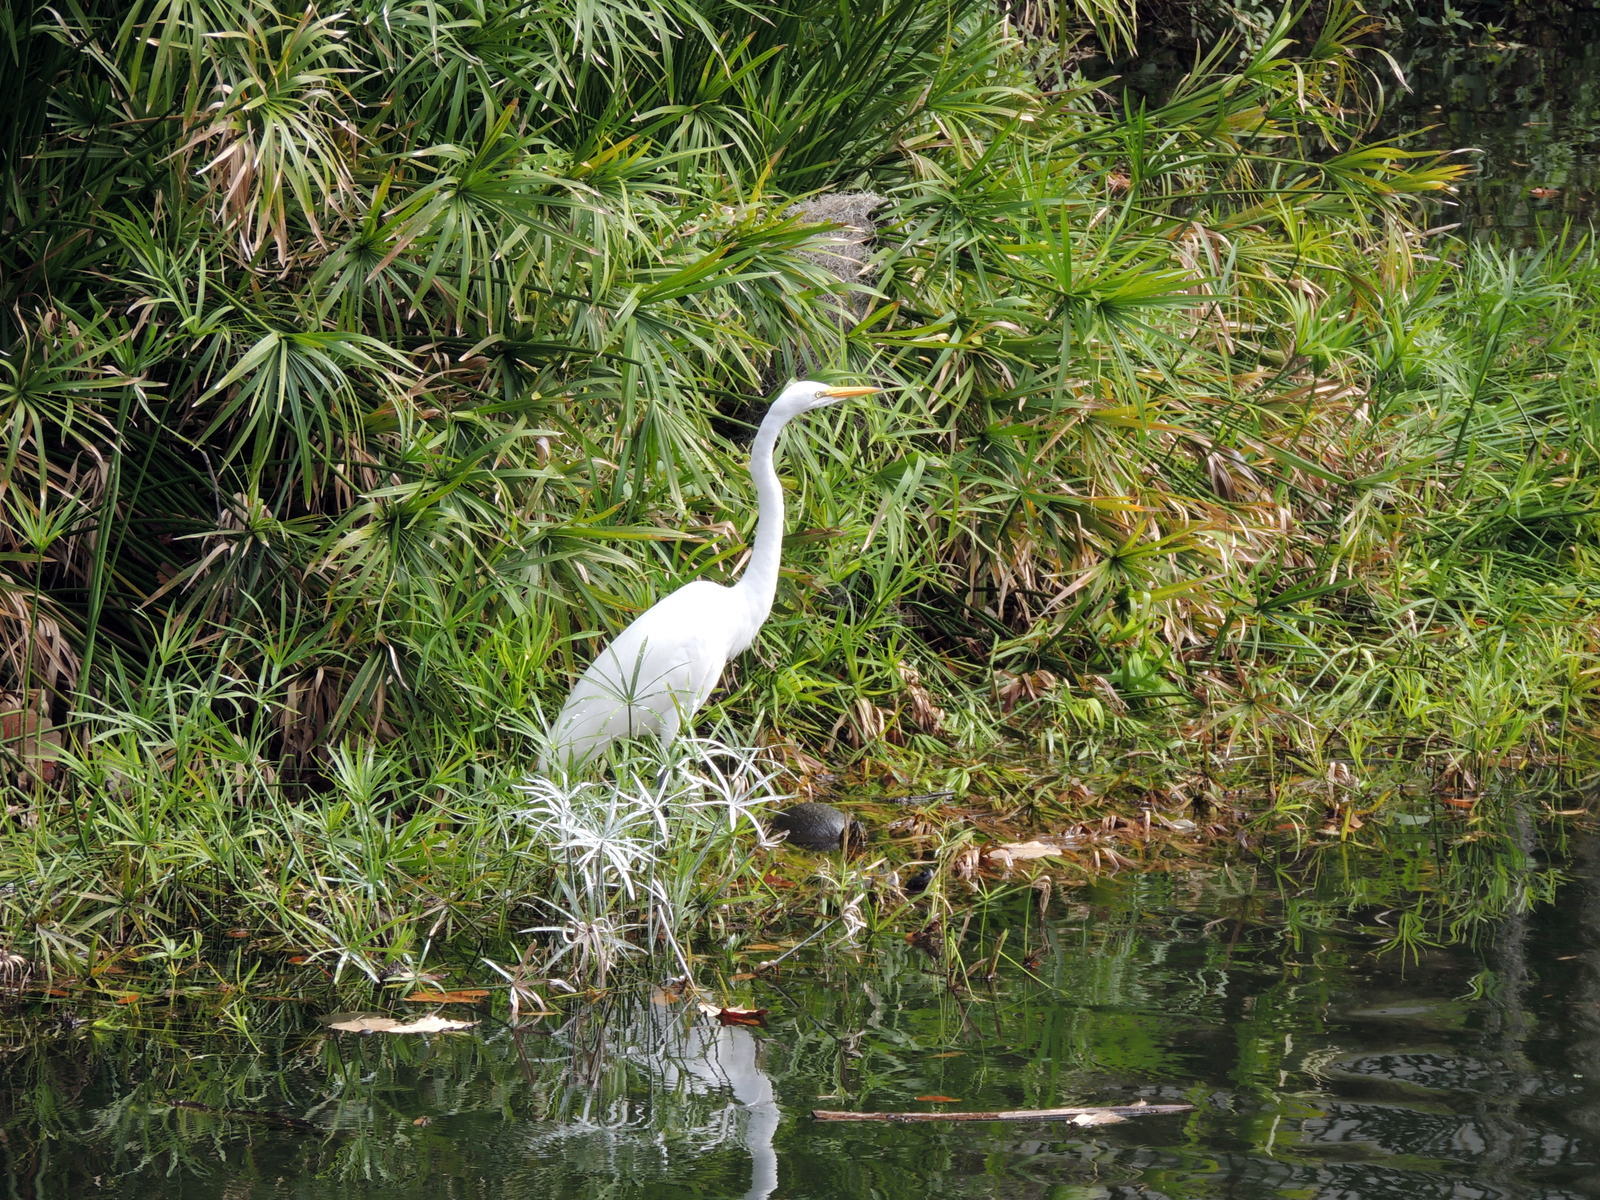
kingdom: Animalia
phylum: Chordata
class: Aves
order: Pelecaniformes
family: Ardeidae
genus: Ardea
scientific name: Ardea alba
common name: Great egret
